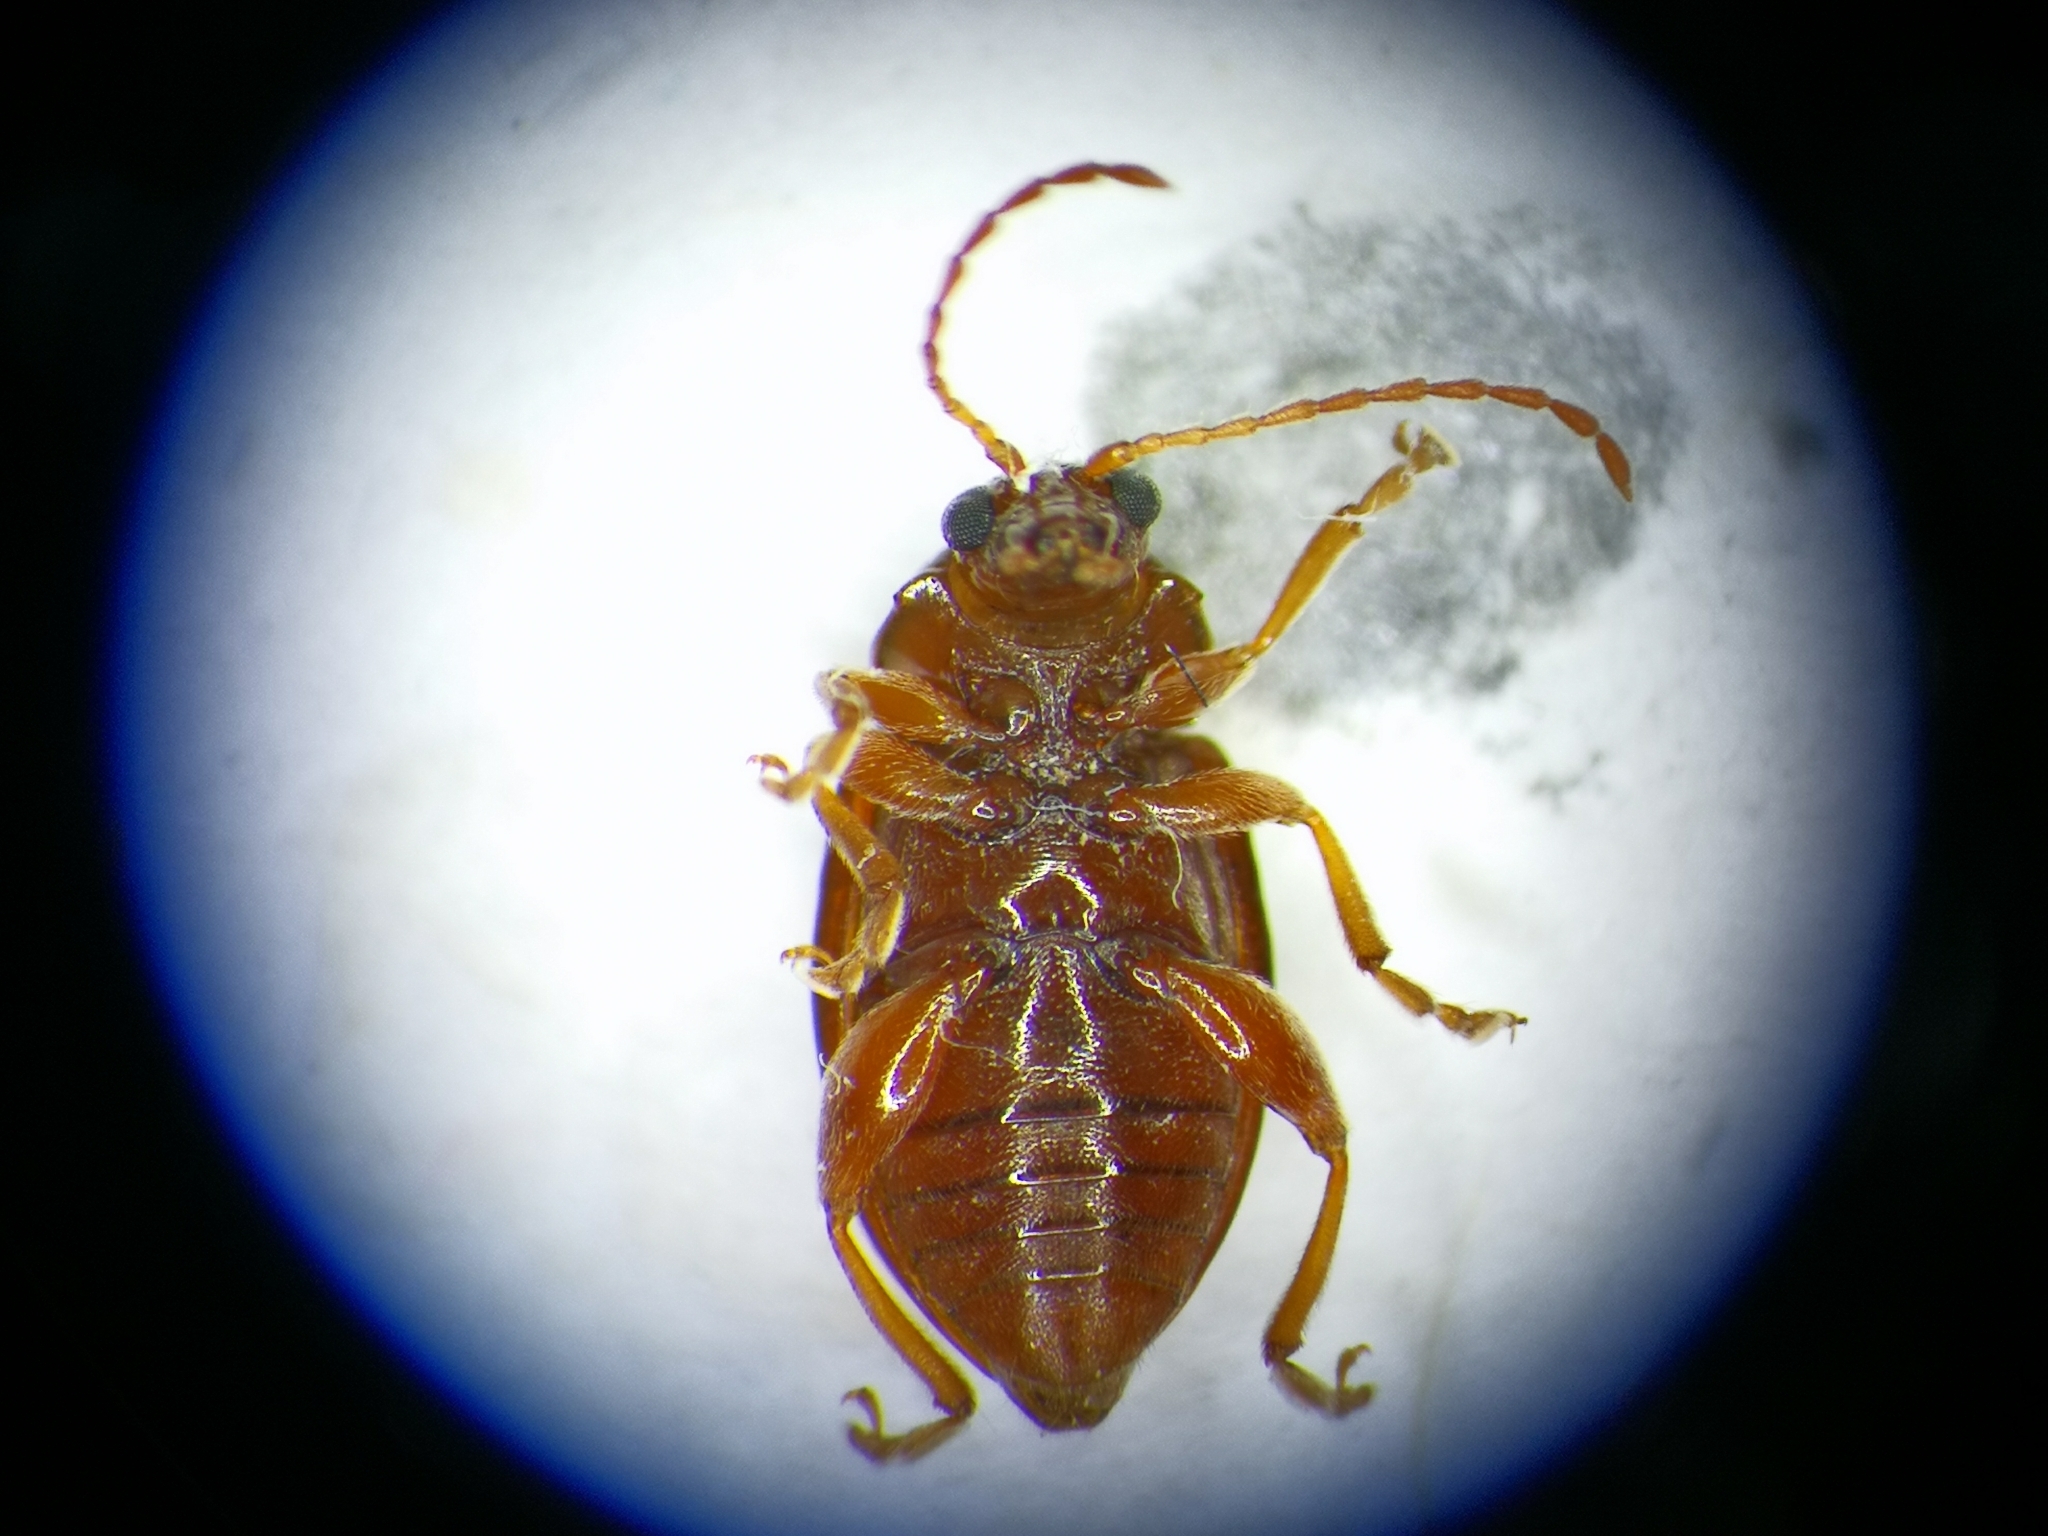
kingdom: Animalia
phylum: Arthropoda
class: Insecta
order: Coleoptera
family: Chrysomelidae
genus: Neocrepidodera
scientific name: Neocrepidodera transversa
